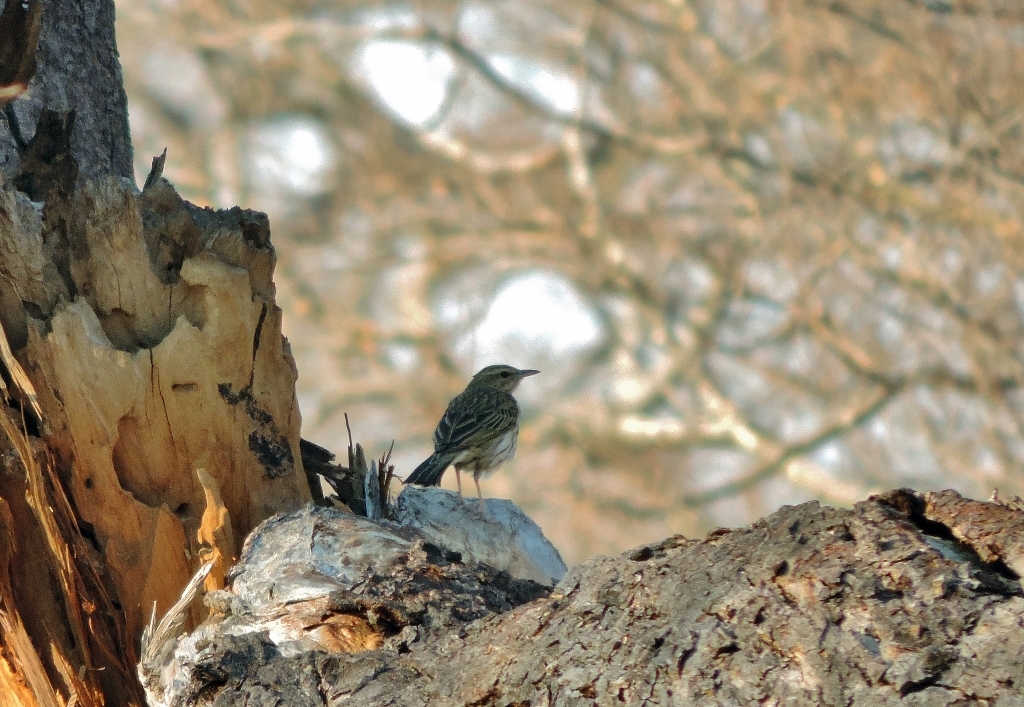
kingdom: Animalia
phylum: Chordata
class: Aves
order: Passeriformes
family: Motacillidae
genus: Anthus
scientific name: Anthus lineiventris
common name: Striped pipit
